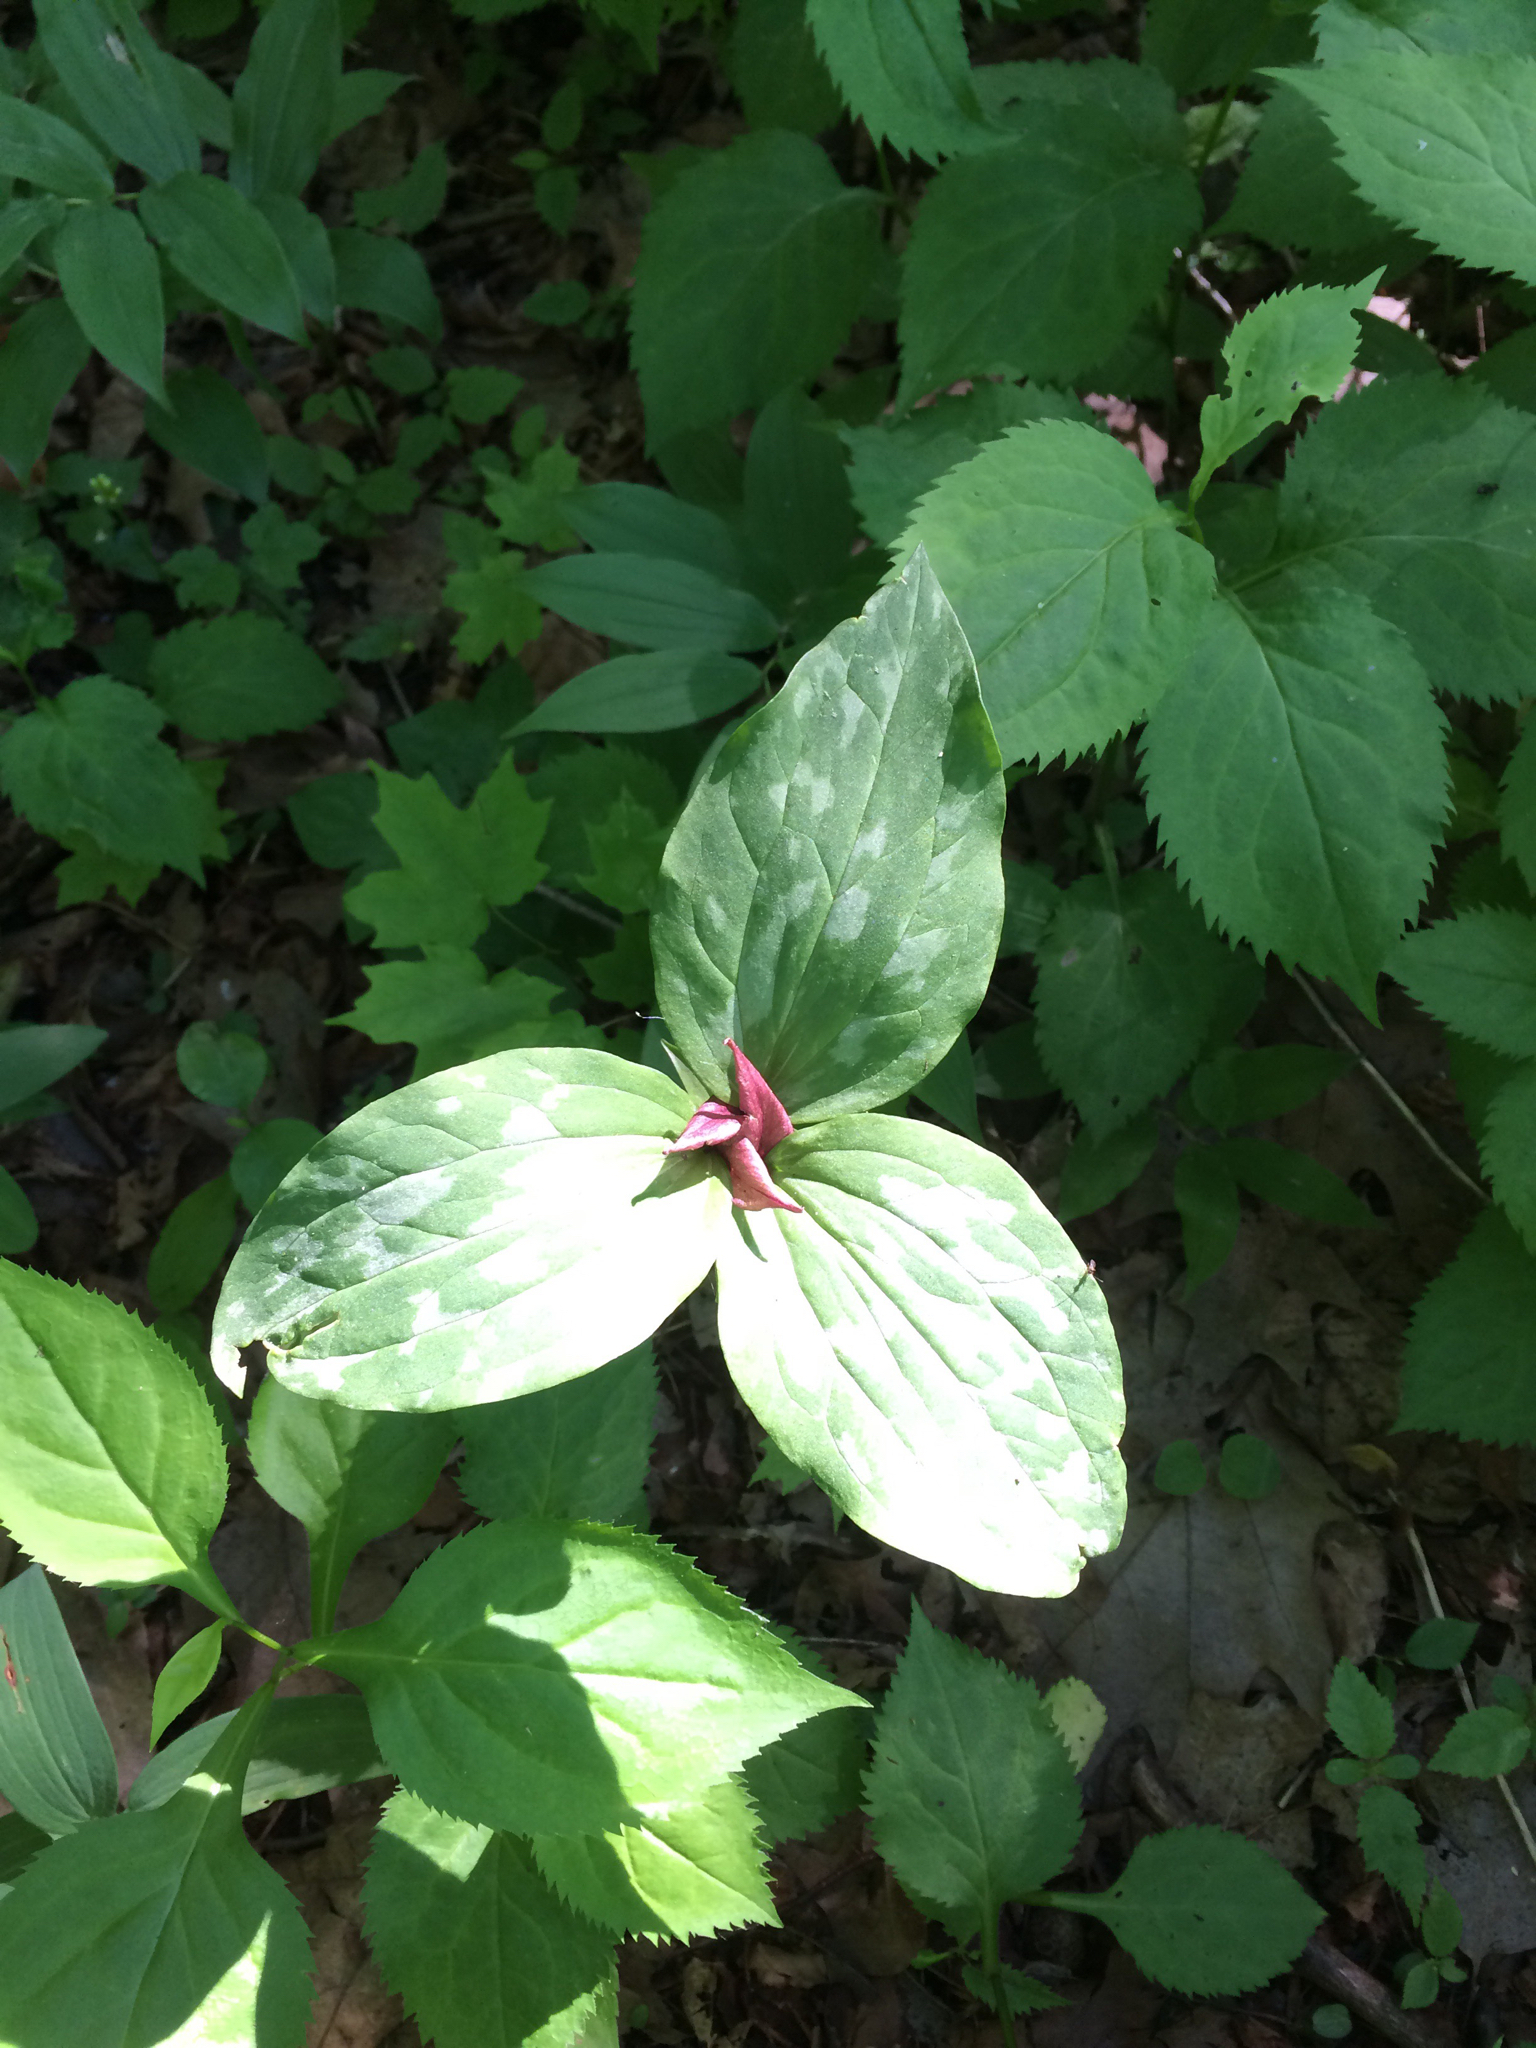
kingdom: Plantae
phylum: Tracheophyta
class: Liliopsida
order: Liliales
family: Melanthiaceae
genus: Trillium
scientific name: Trillium sessile
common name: Sessile trillium
